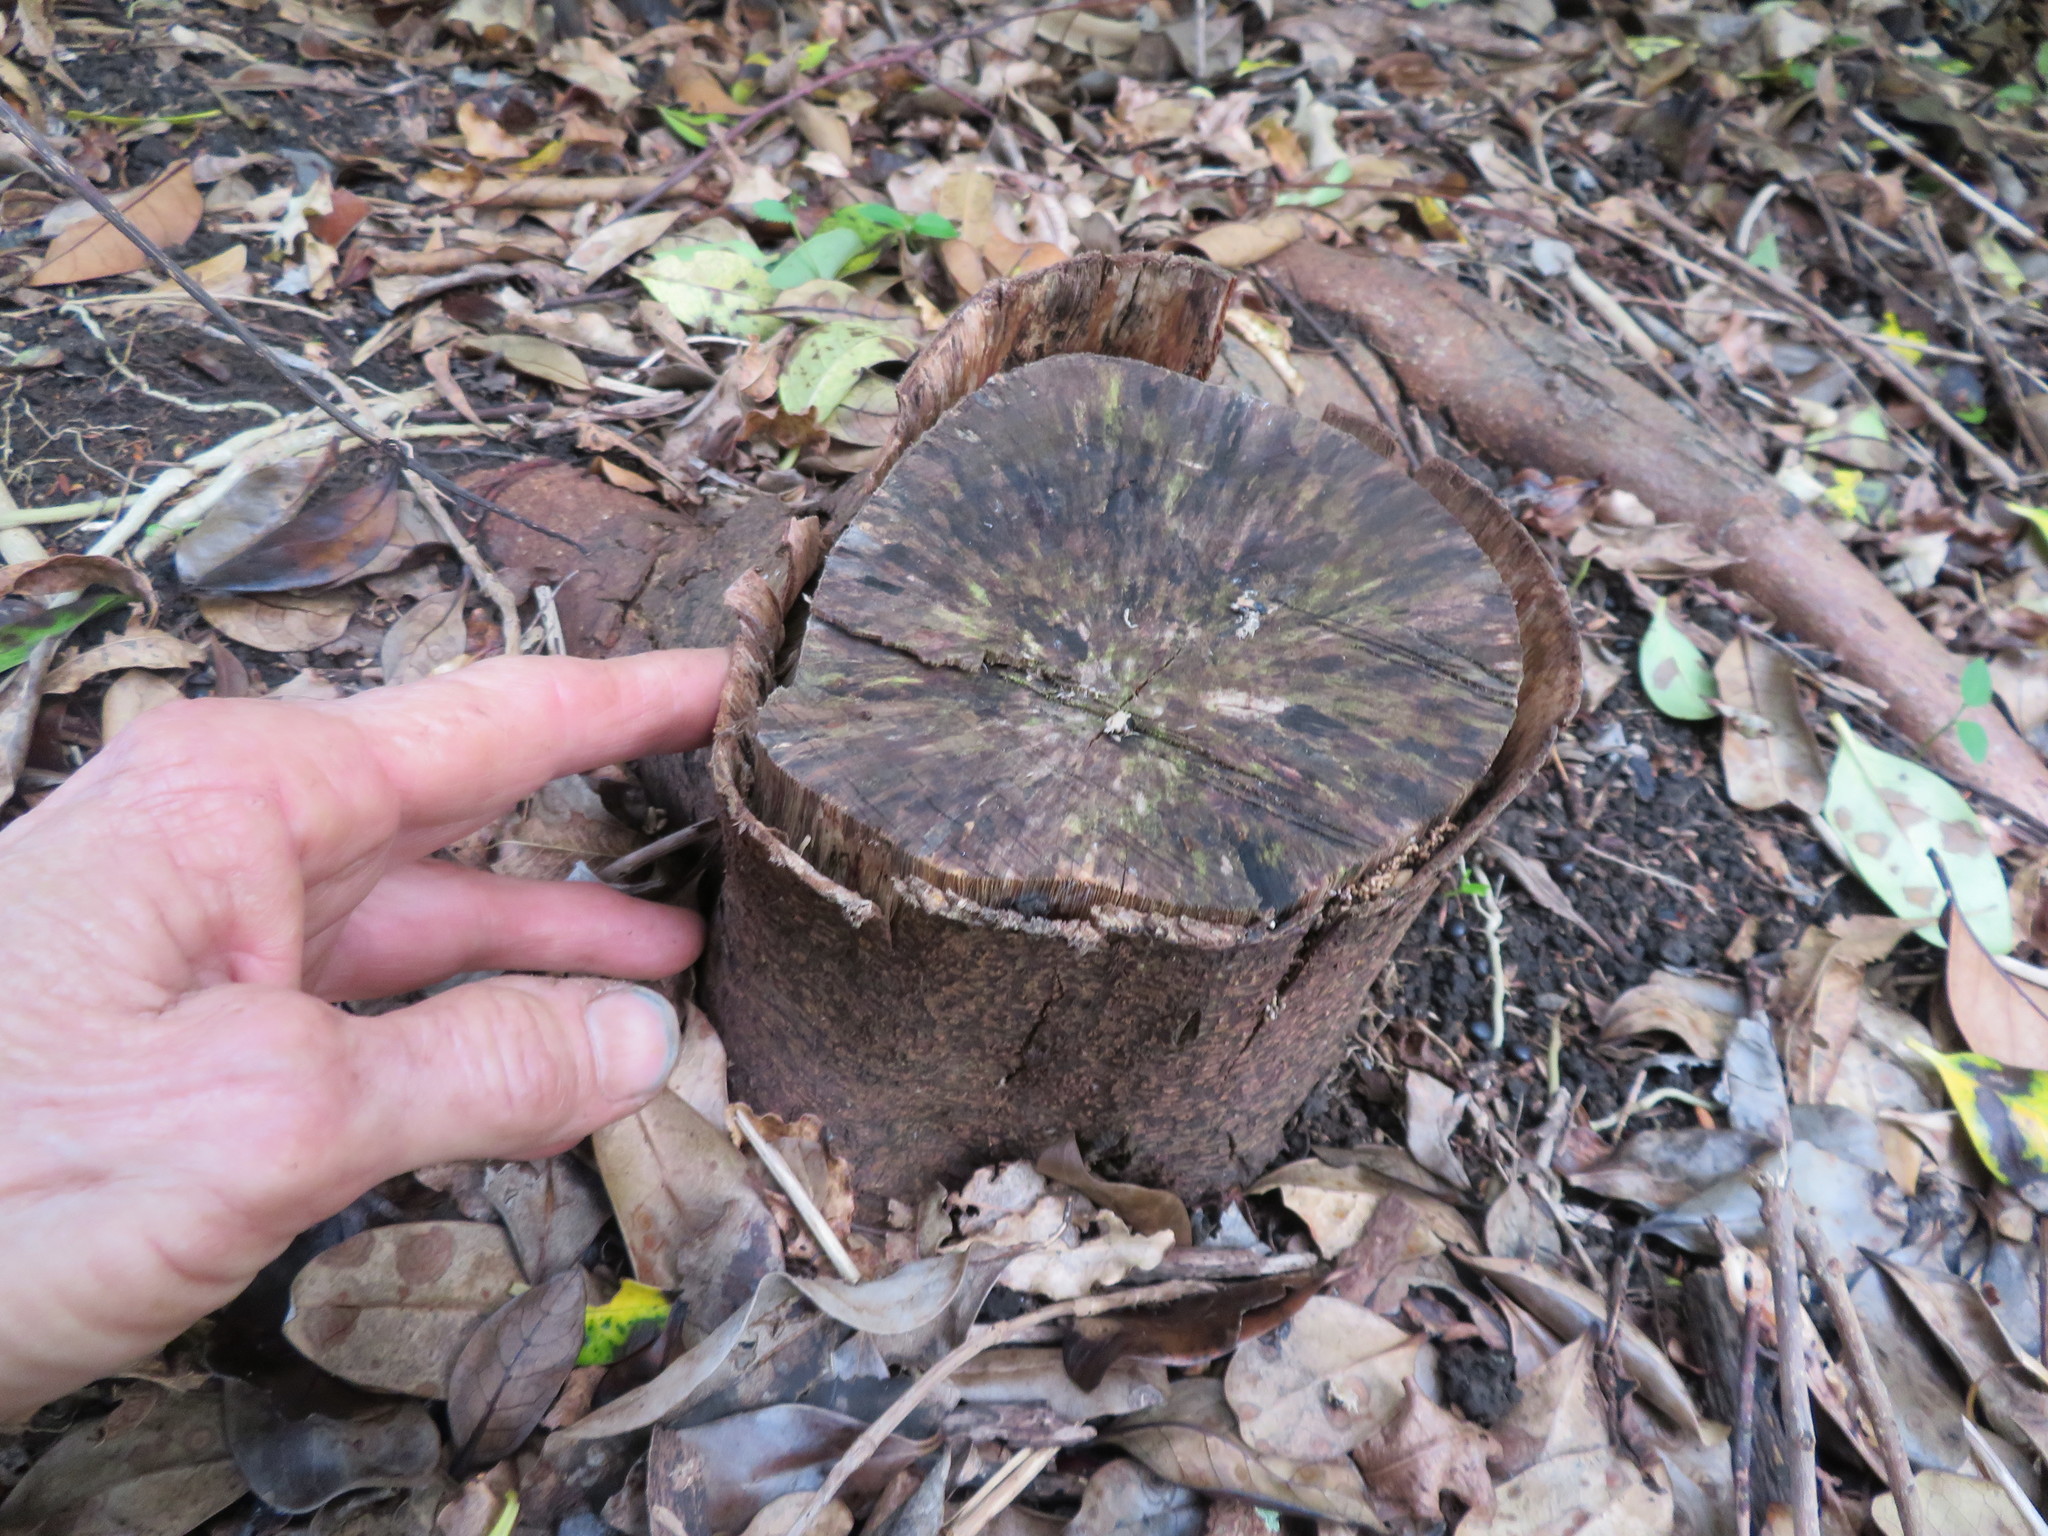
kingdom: Plantae
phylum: Tracheophyta
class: Magnoliopsida
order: Fabales
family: Fabaceae
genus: Paraserianthes
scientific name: Paraserianthes lophantha
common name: Plume albizia
